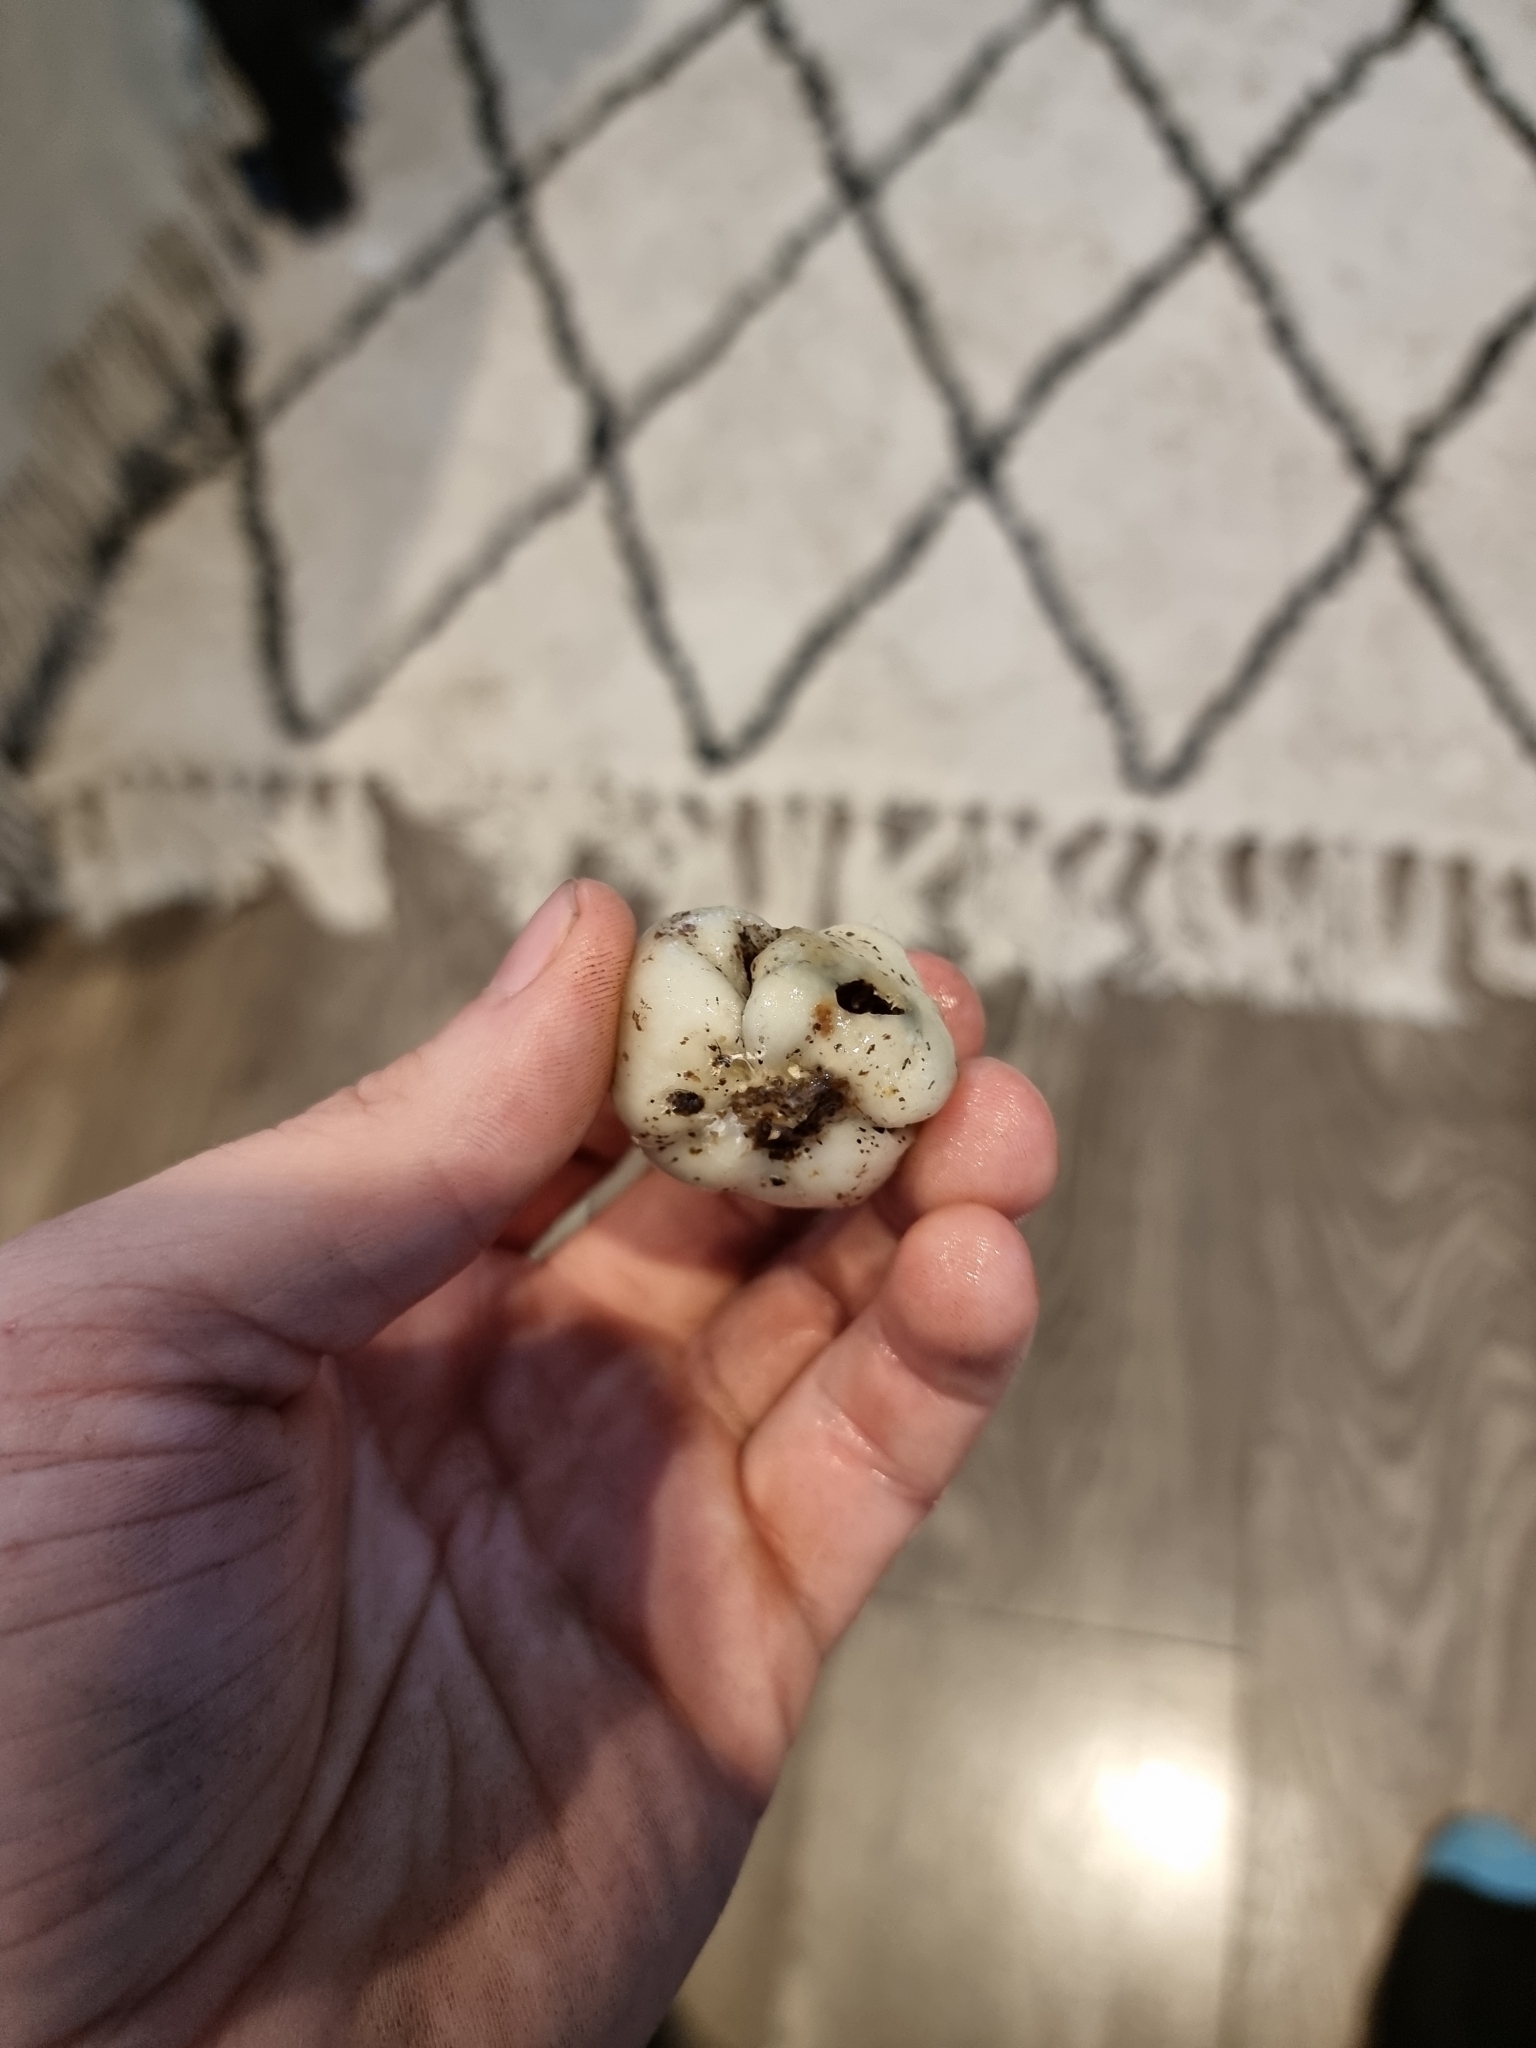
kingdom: Fungi
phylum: Basidiomycota
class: Agaricomycetes
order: Agaricales
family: Hymenogastraceae
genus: Psilocybe
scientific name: Psilocybe weraroa
